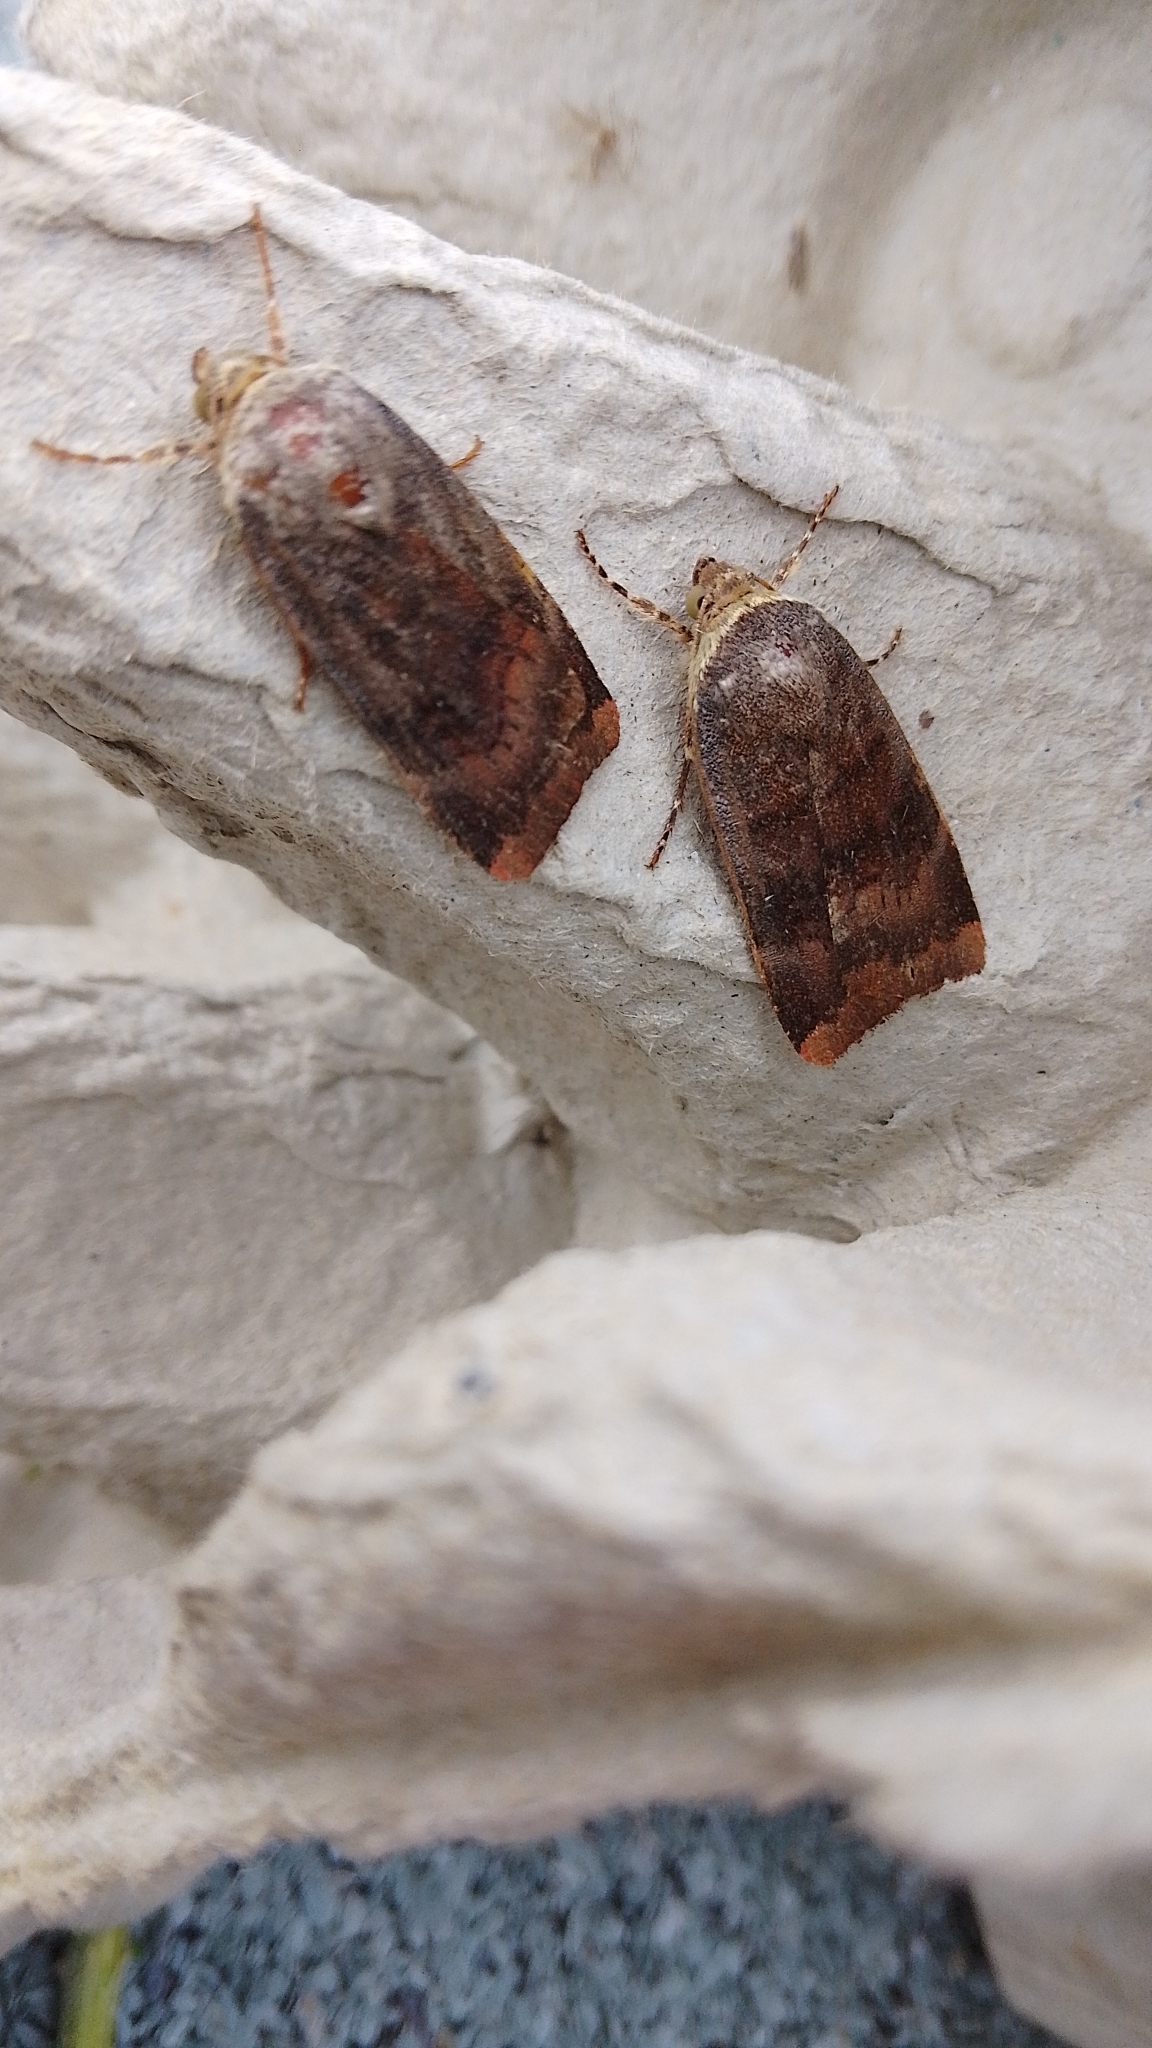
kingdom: Animalia
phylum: Arthropoda
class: Insecta
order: Lepidoptera
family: Noctuidae
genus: Noctua
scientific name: Noctua janthe
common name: Lesser broad-bordered yellow underwing
